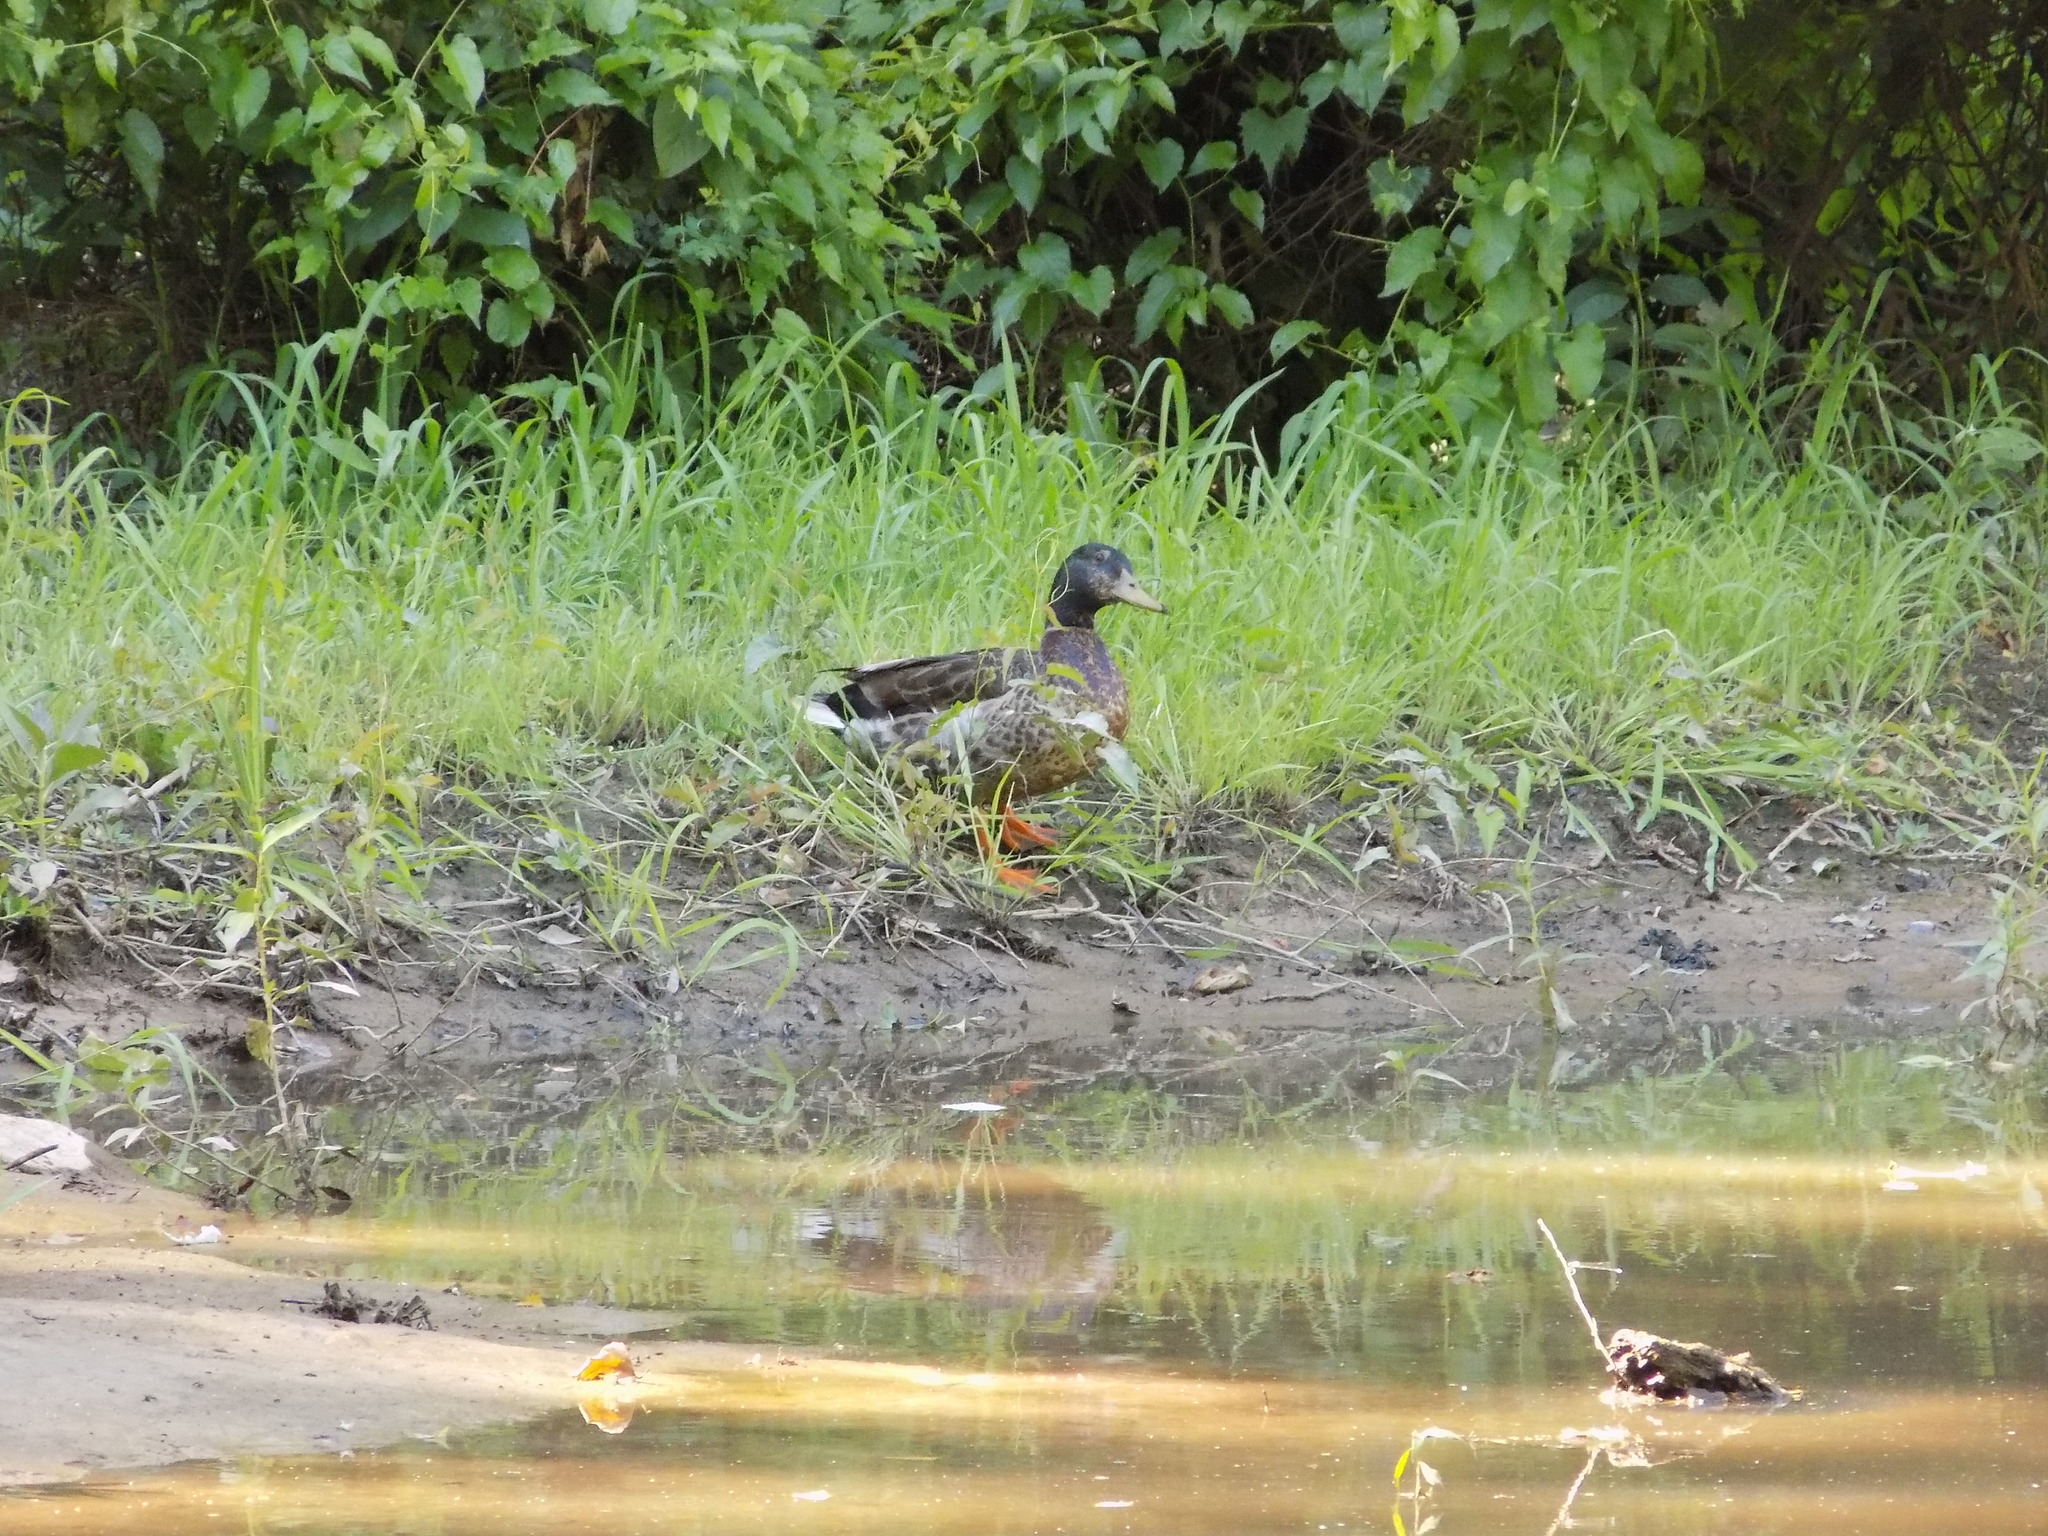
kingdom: Animalia
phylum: Chordata
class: Aves
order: Anseriformes
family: Anatidae
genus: Anas
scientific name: Anas platyrhynchos
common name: Mallard
